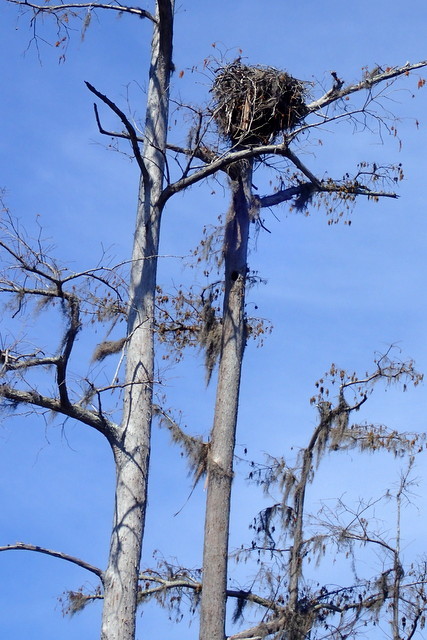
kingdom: Animalia
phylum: Chordata
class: Aves
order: Accipitriformes
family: Pandionidae
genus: Pandion
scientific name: Pandion haliaetus
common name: Osprey
